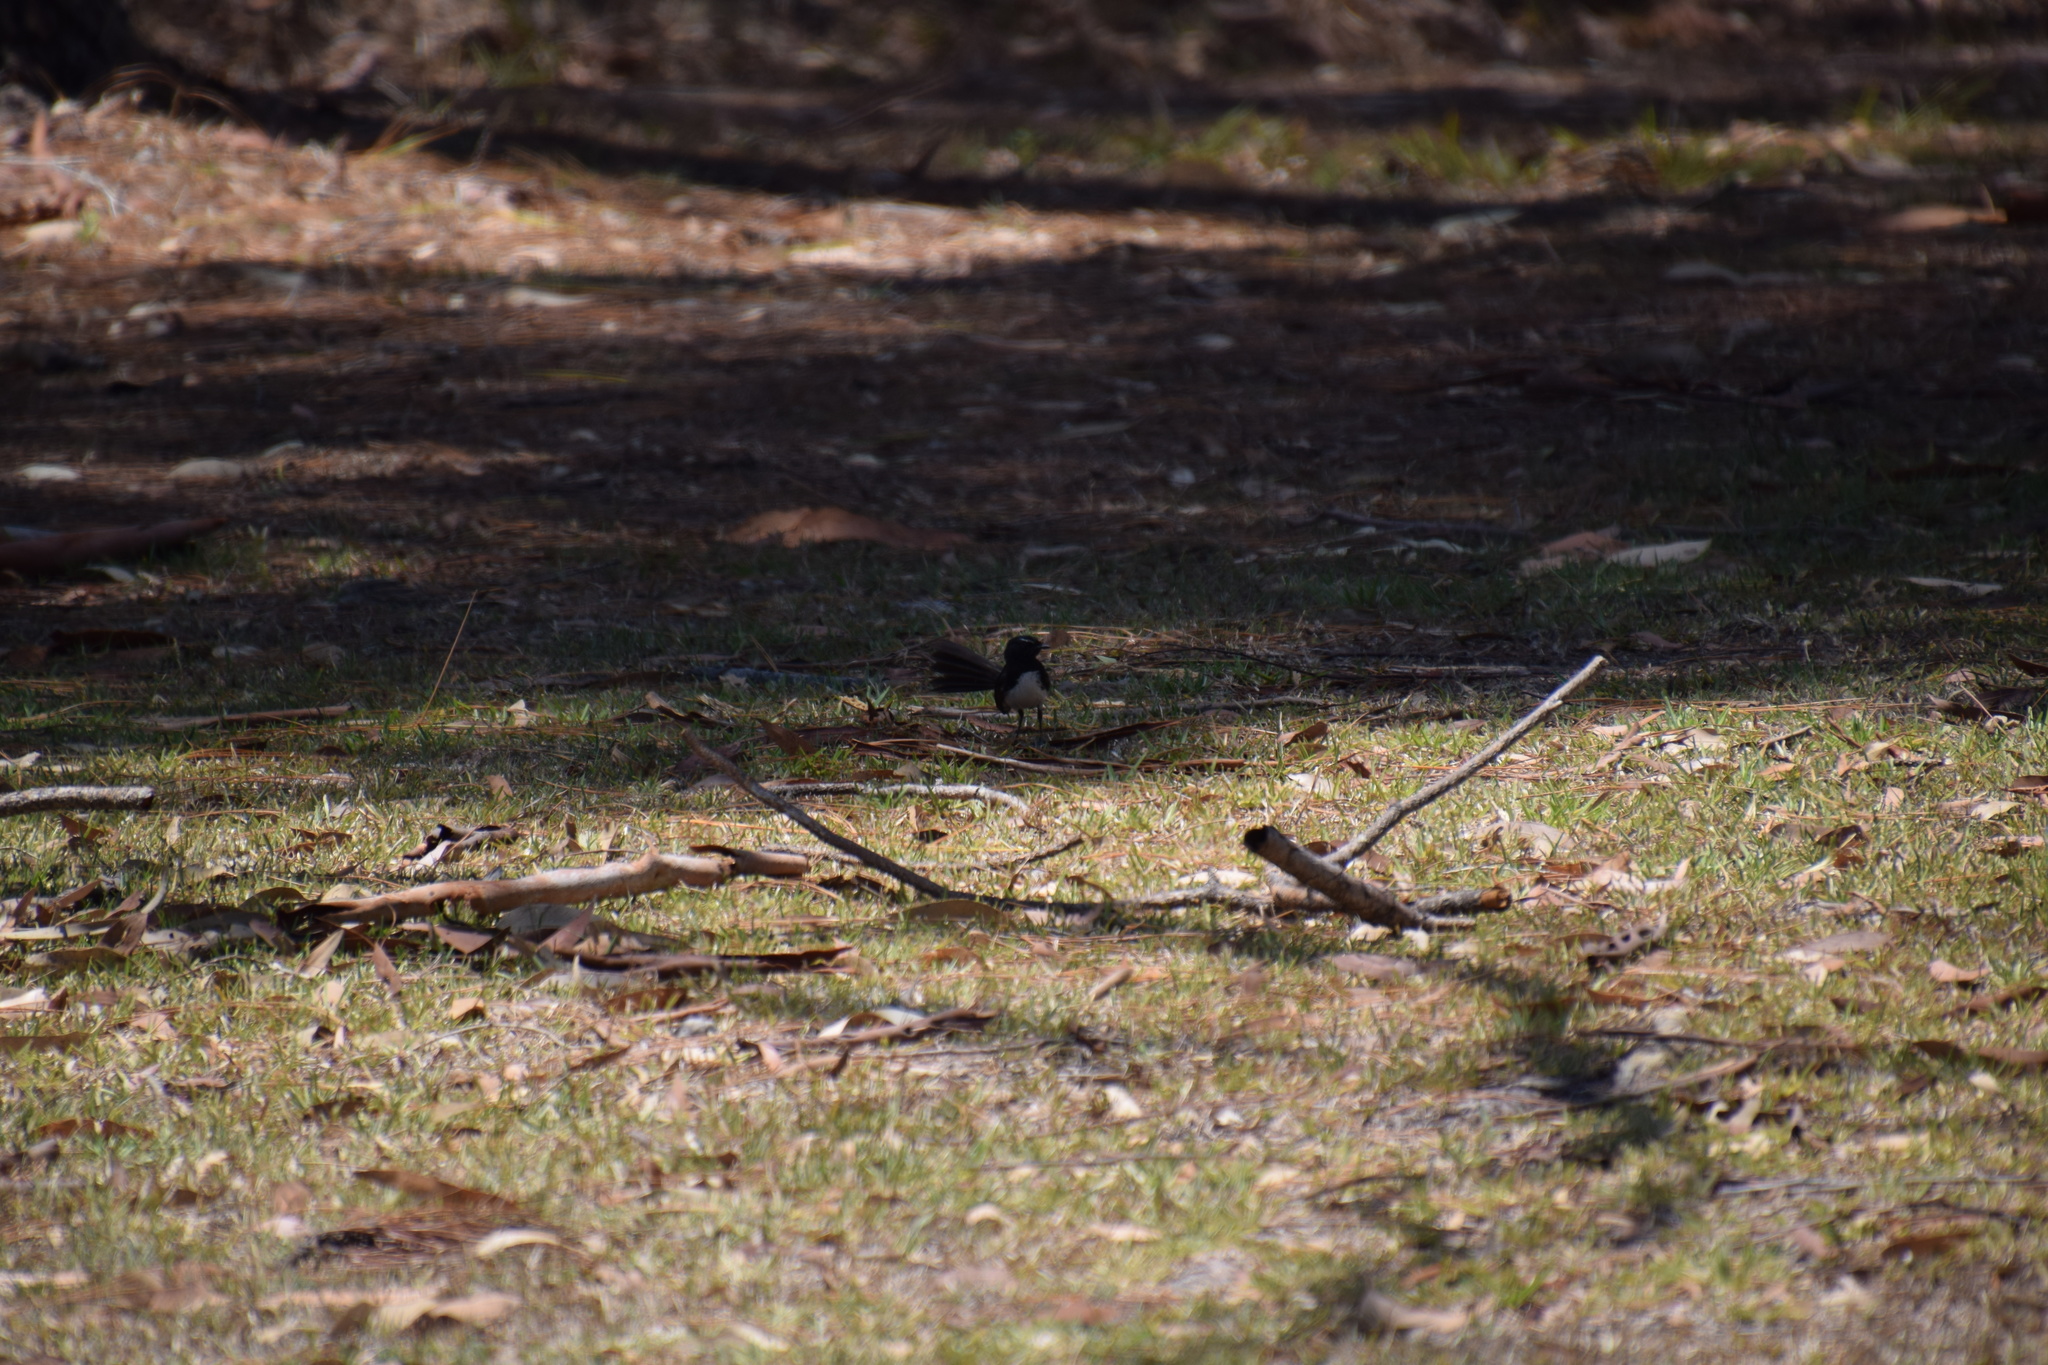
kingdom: Animalia
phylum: Chordata
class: Aves
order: Passeriformes
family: Rhipiduridae
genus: Rhipidura
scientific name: Rhipidura leucophrys
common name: Willie wagtail
